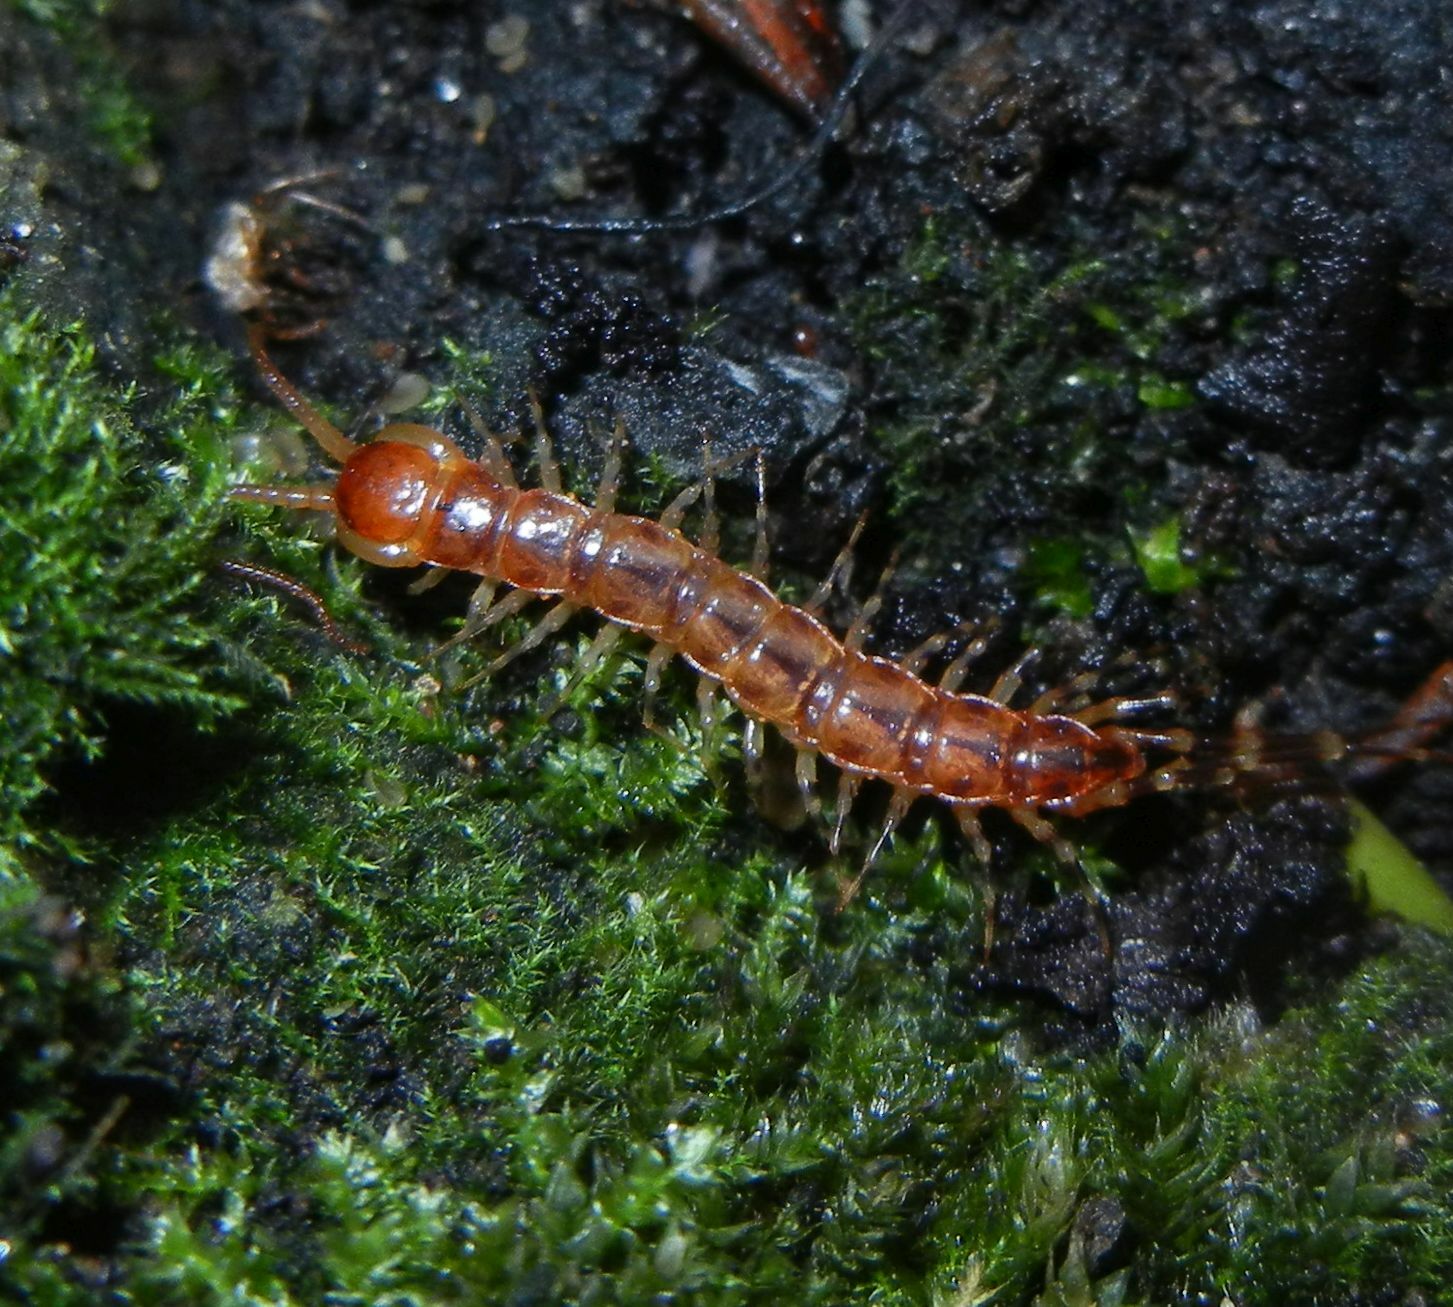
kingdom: Animalia
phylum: Arthropoda
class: Chilopoda
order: Lithobiomorpha
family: Lithobiidae
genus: Lithobius
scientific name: Lithobius variegatus
